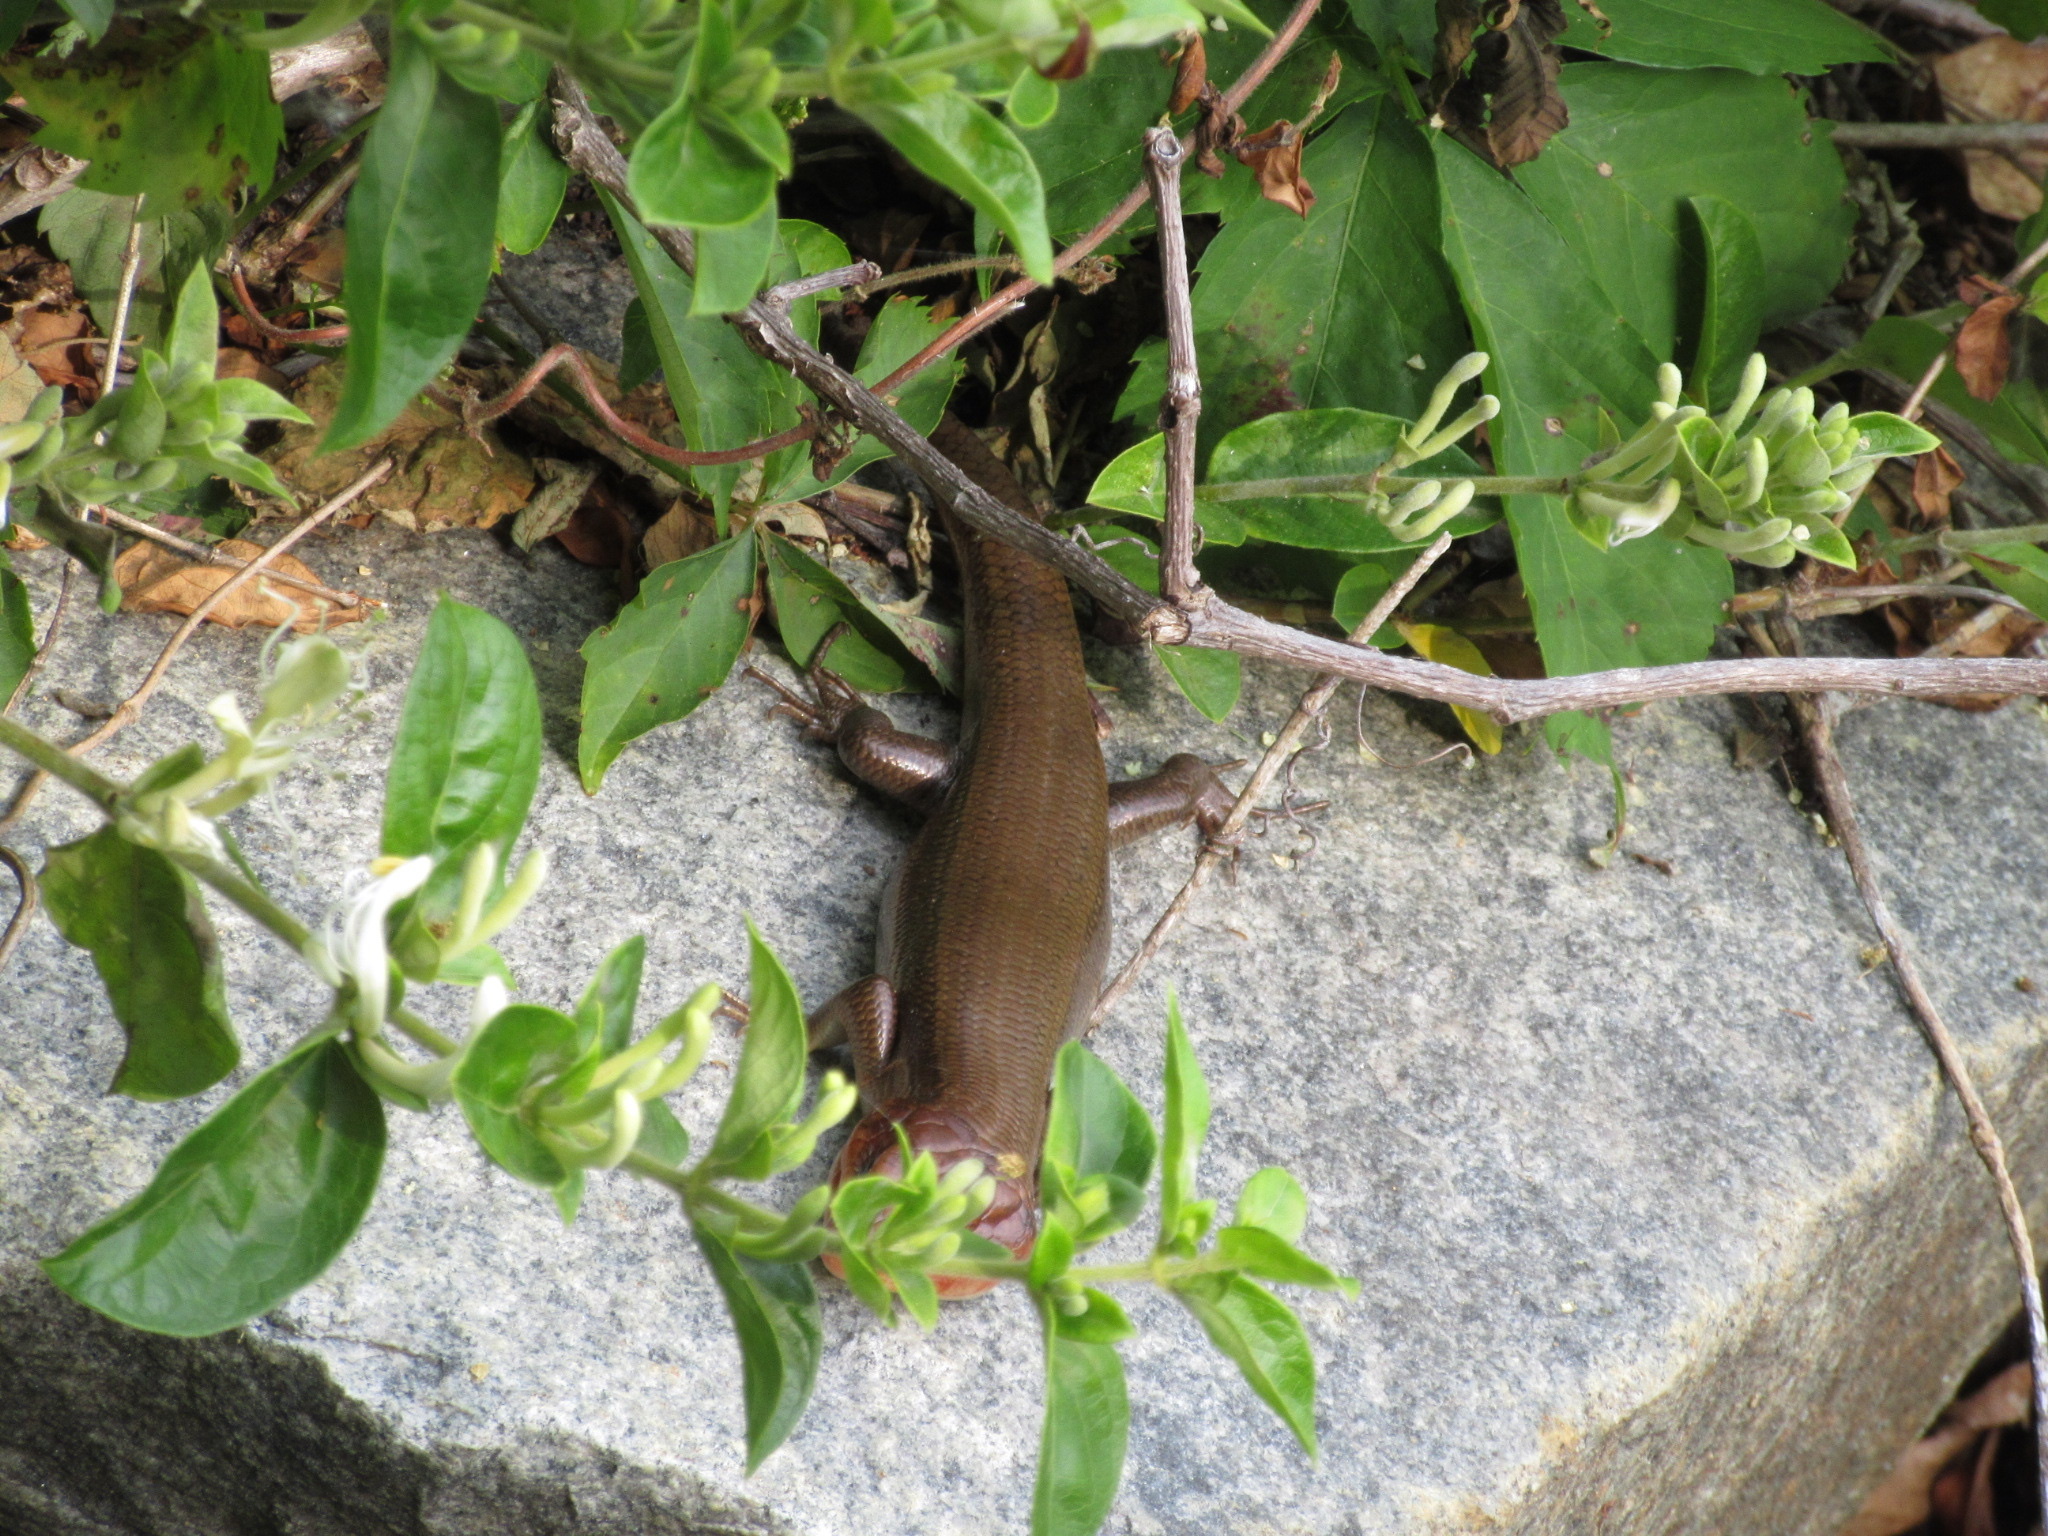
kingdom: Animalia
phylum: Chordata
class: Squamata
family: Scincidae
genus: Plestiodon
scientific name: Plestiodon laticeps
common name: Broadhead skink
